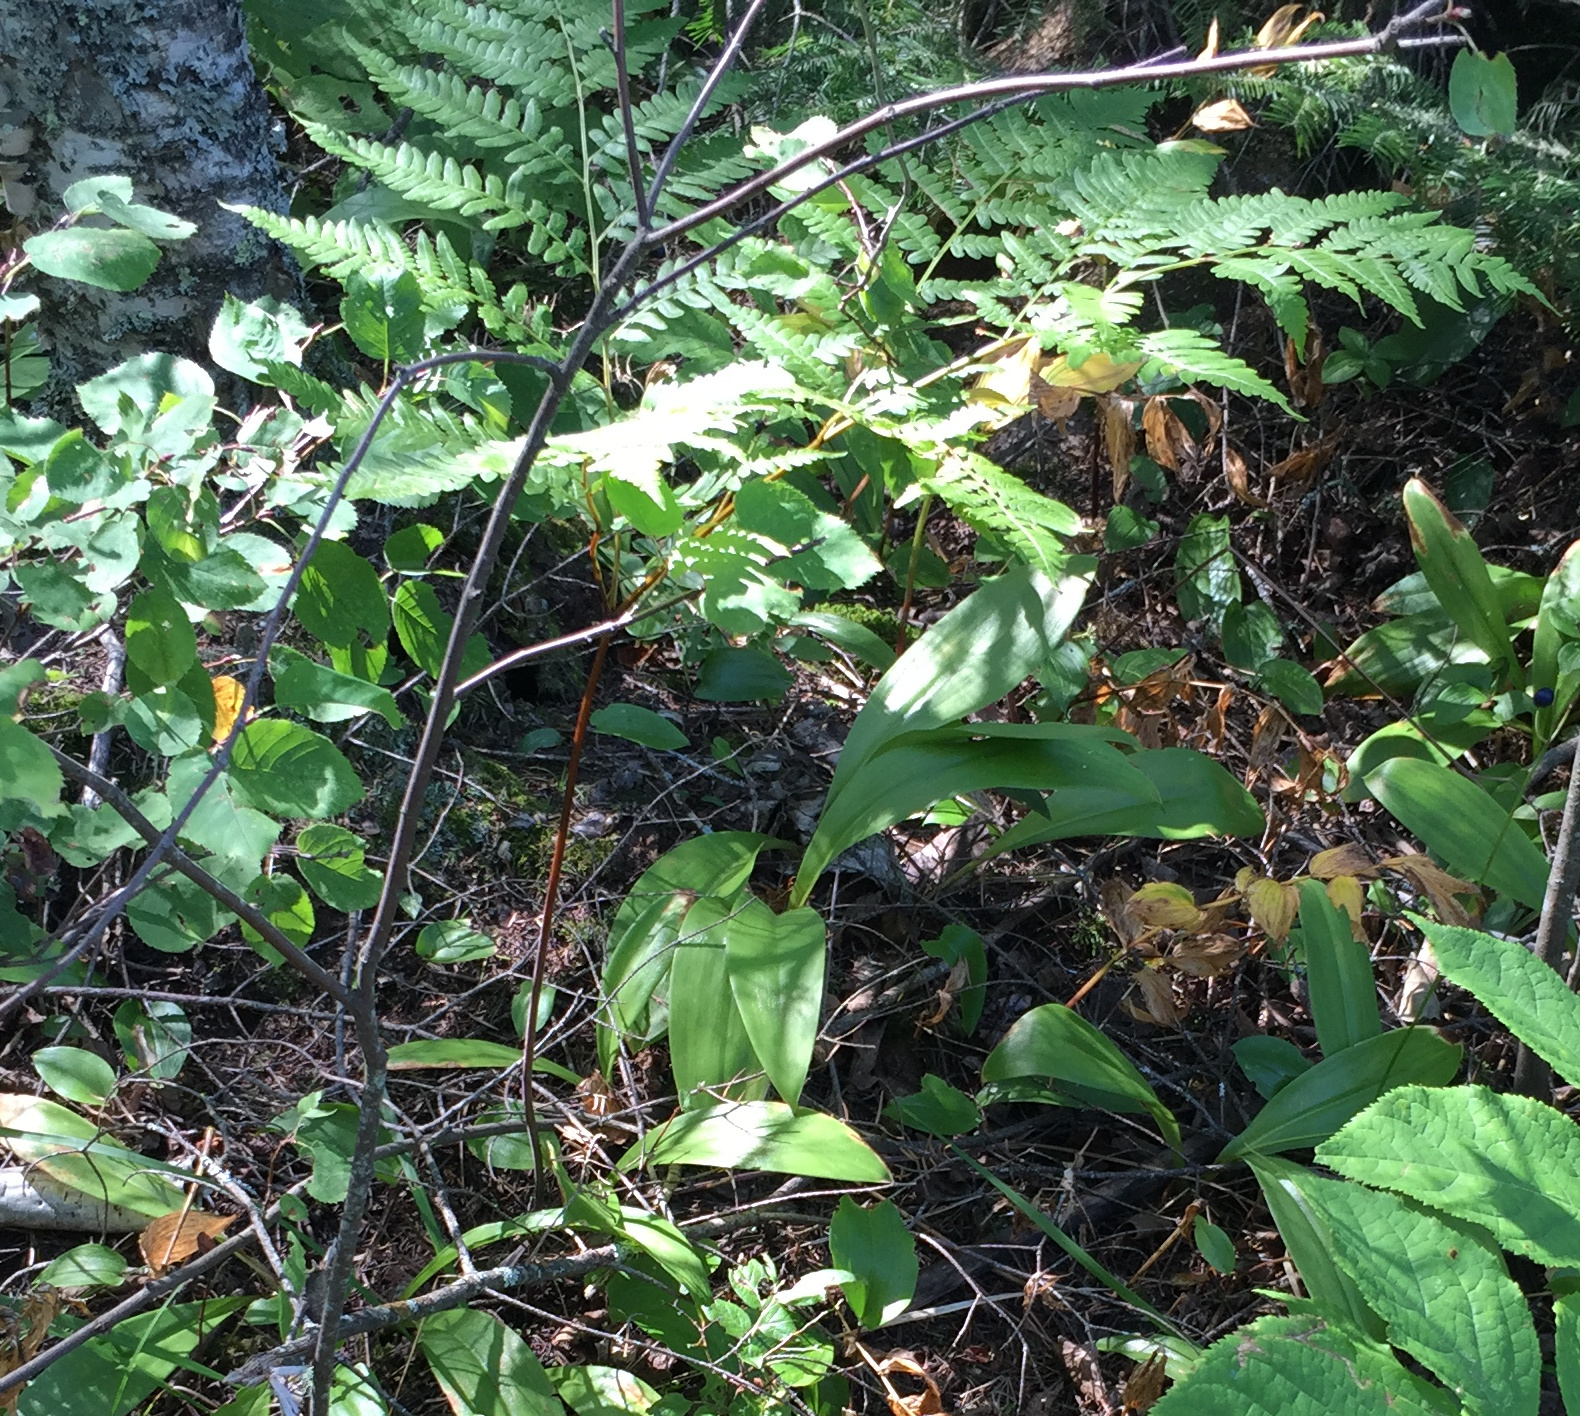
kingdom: Plantae
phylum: Tracheophyta
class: Polypodiopsida
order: Polypodiales
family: Dennstaedtiaceae
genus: Pteridium
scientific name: Pteridium aquilinum
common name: Bracken
